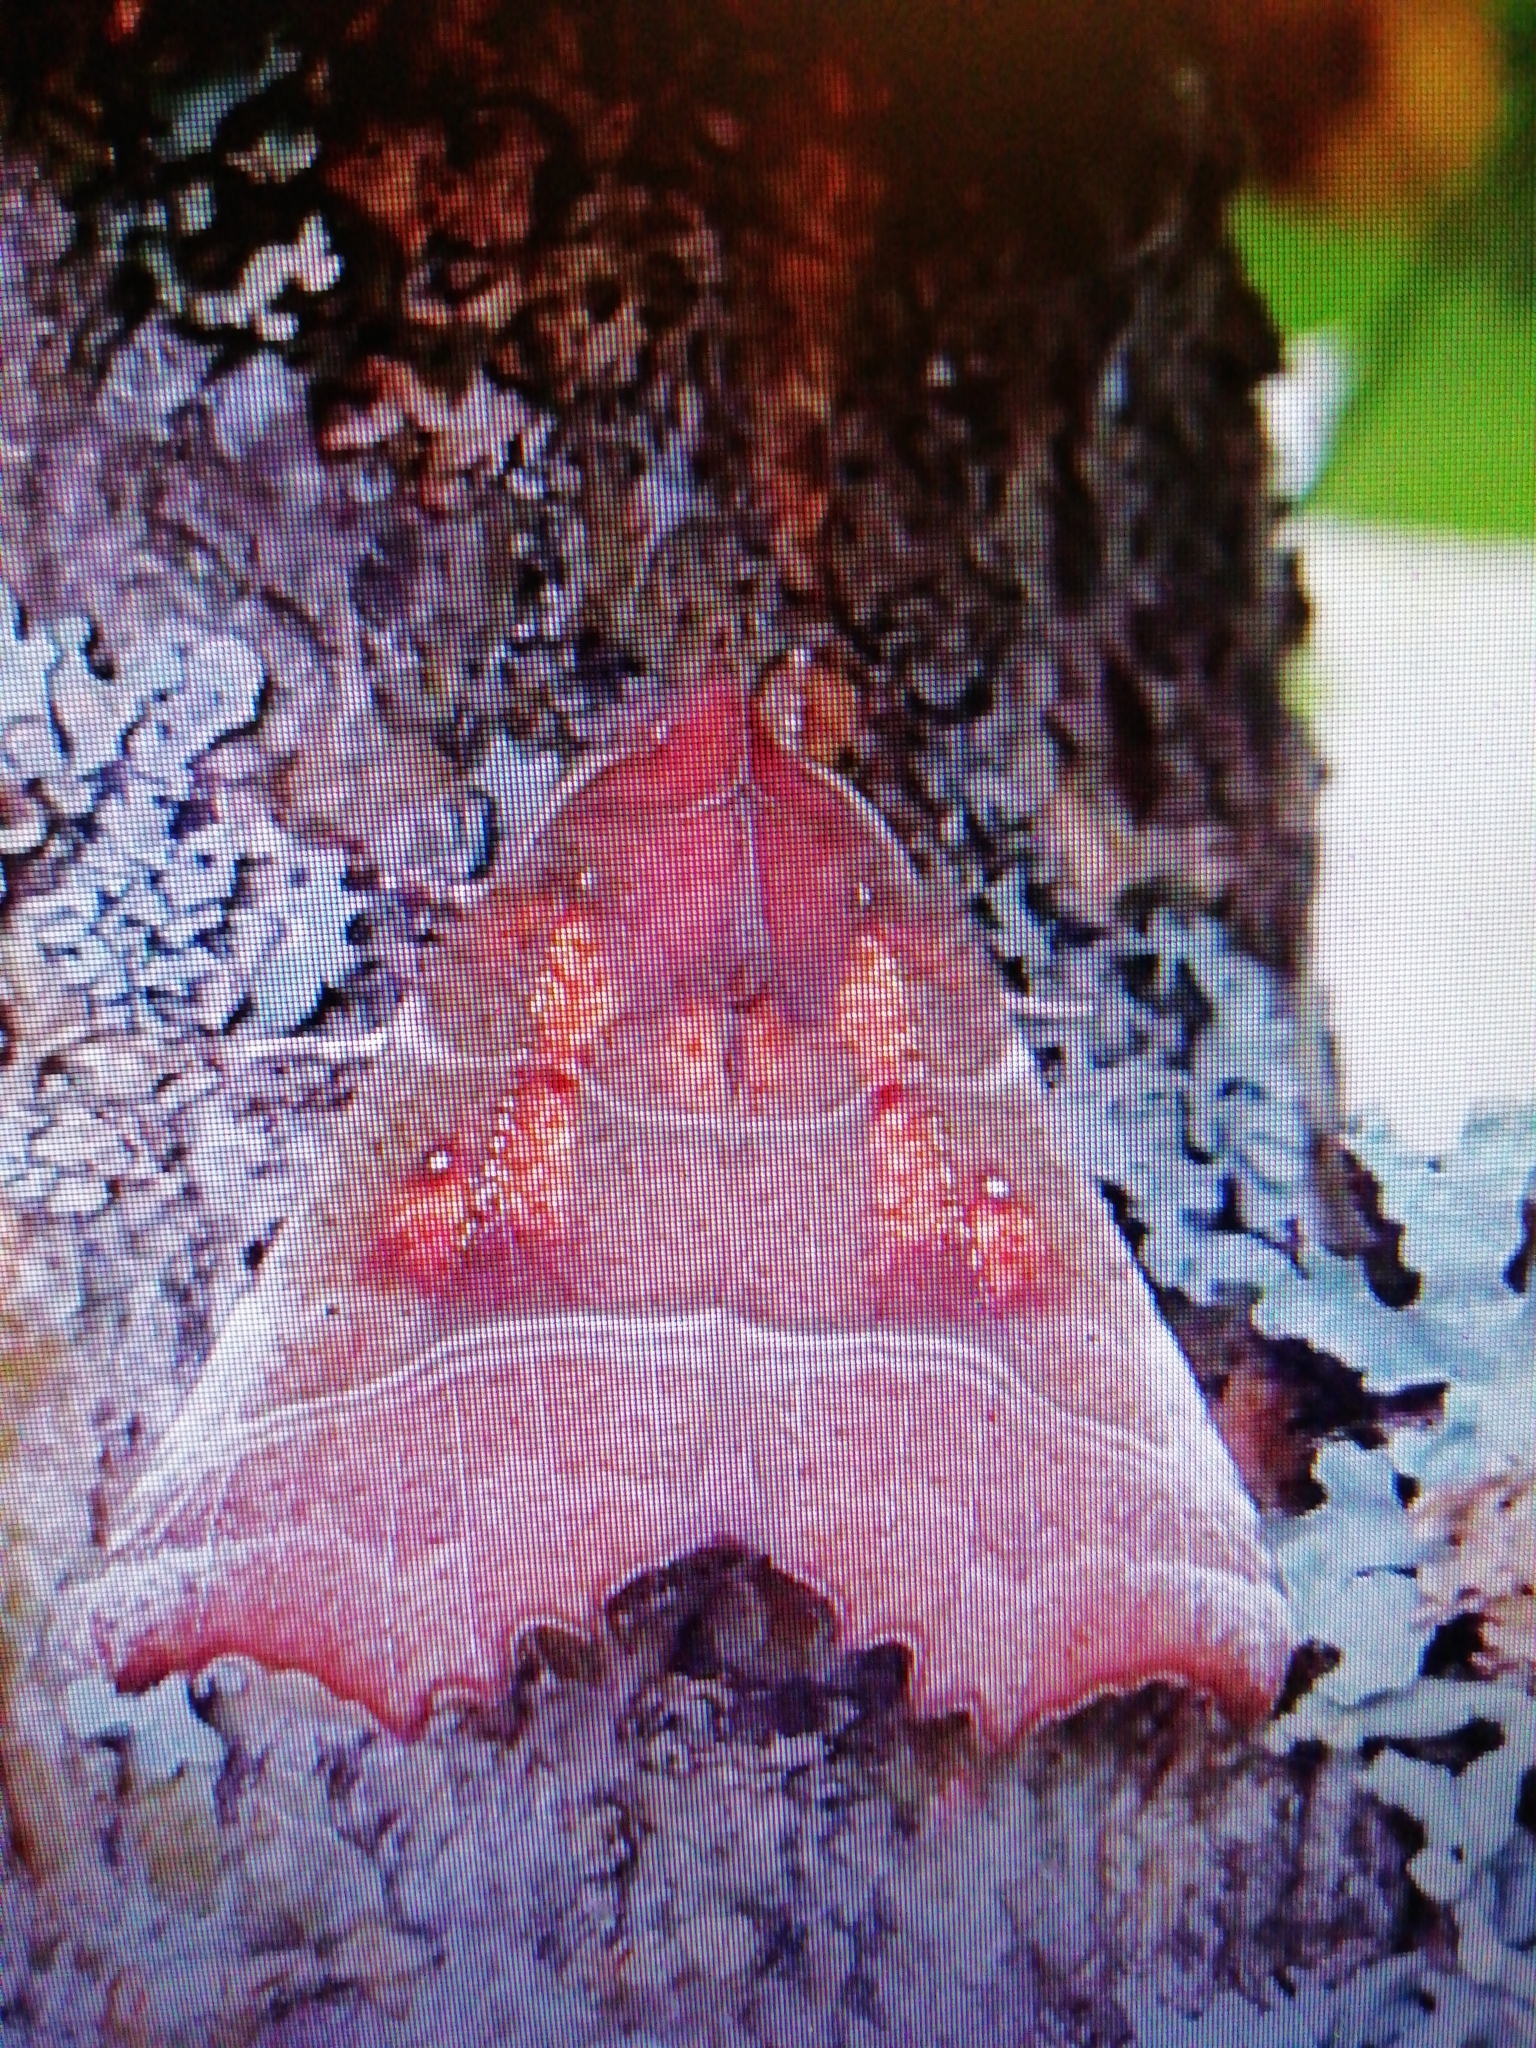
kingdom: Animalia
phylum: Arthropoda
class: Insecta
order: Lepidoptera
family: Erebidae
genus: Scoliopteryx
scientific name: Scoliopteryx libatrix
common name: Herald
